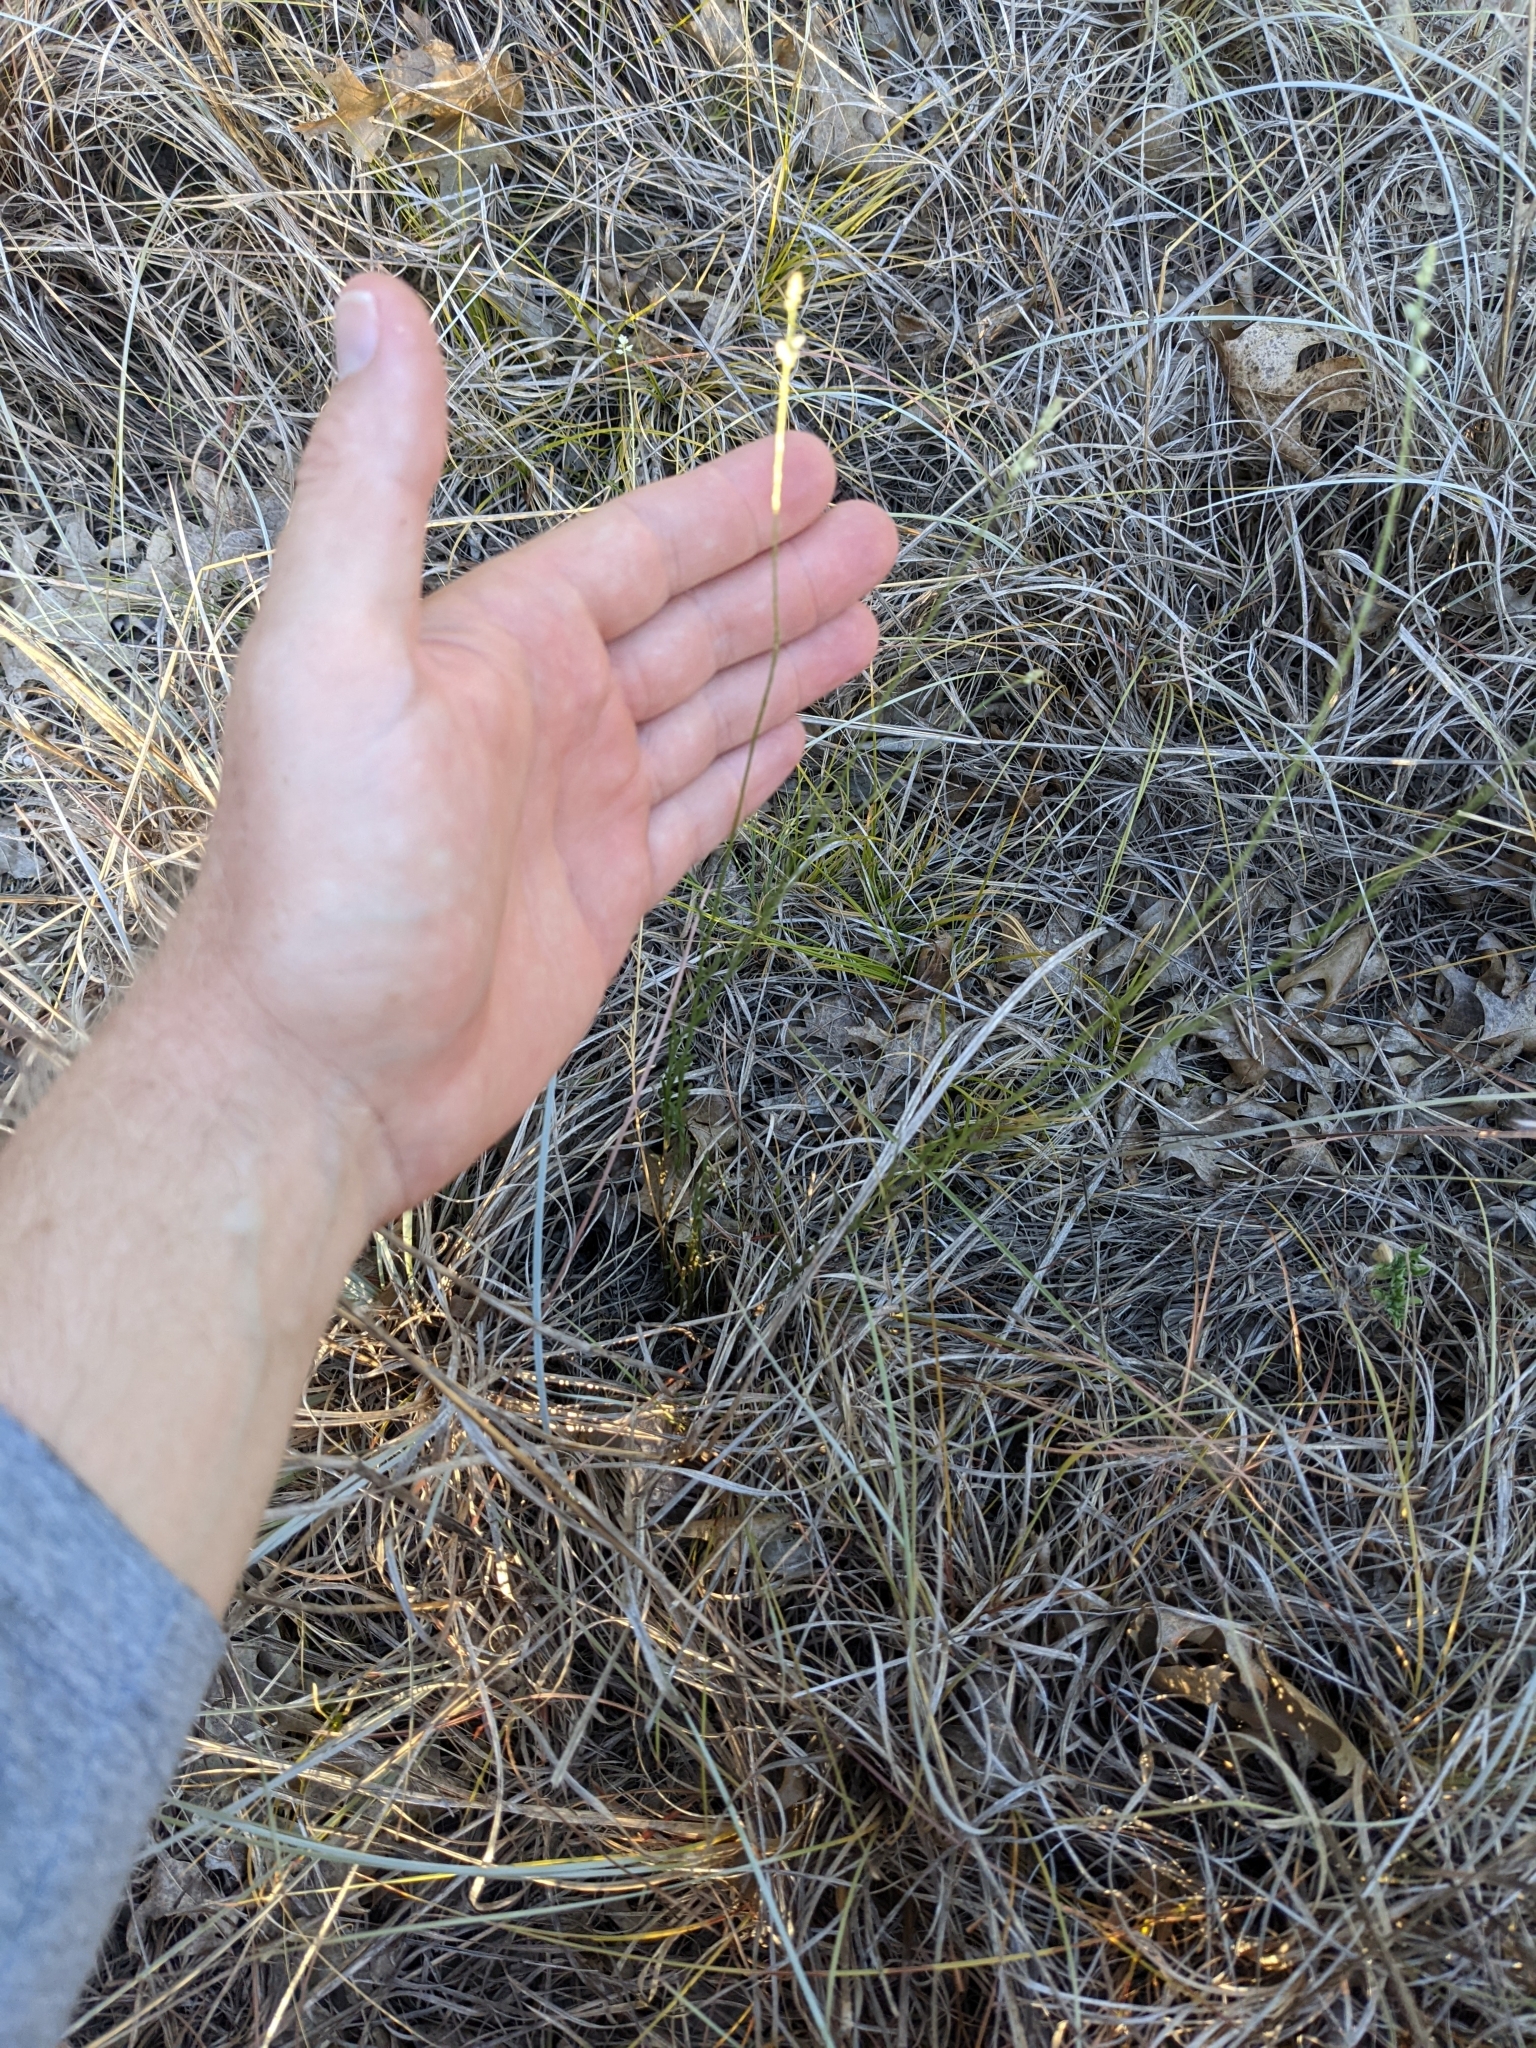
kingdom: Plantae
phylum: Tracheophyta
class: Magnoliopsida
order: Fabales
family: Polygalaceae
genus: Polygala
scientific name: Polygala alba
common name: White milkwort
